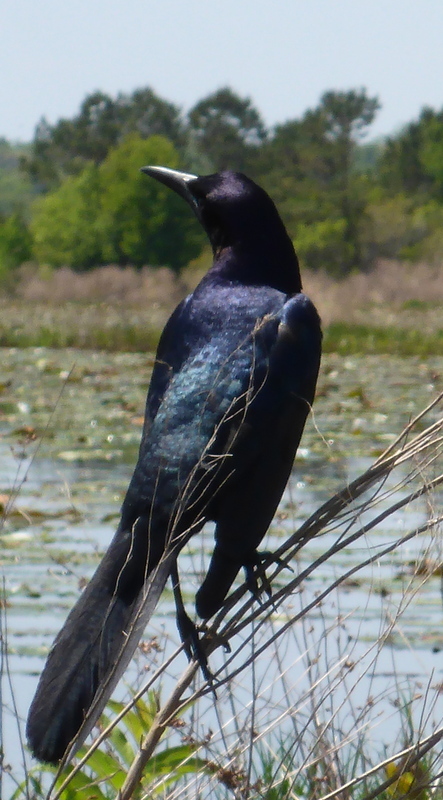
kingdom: Animalia
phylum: Chordata
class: Aves
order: Passeriformes
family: Icteridae
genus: Quiscalus
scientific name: Quiscalus major
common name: Boat-tailed grackle
